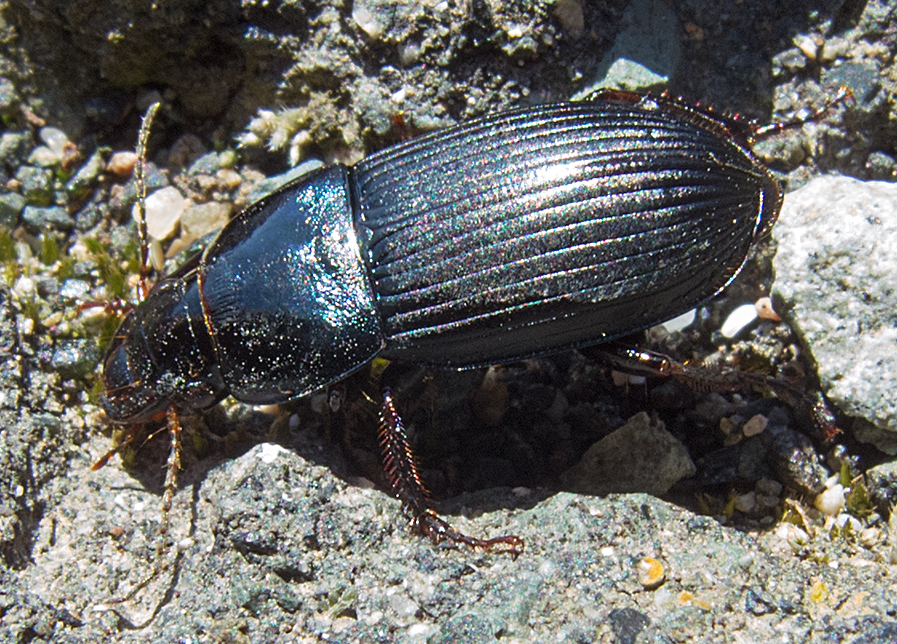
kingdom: Animalia
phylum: Arthropoda
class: Insecta
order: Coleoptera
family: Carabidae
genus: Harpalus
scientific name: Harpalus caspius
